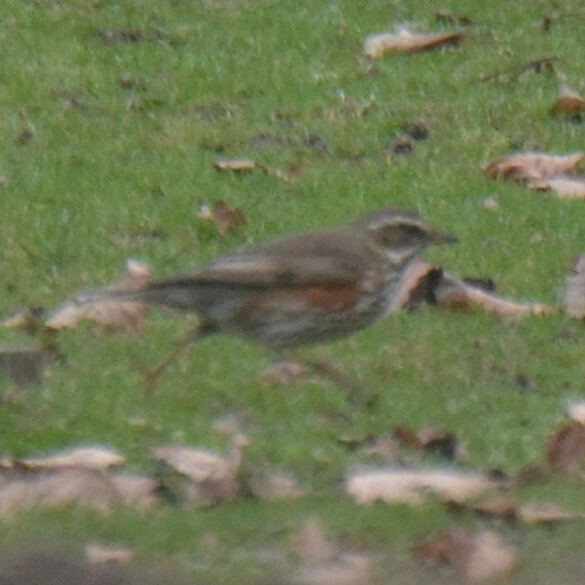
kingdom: Animalia
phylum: Chordata
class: Aves
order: Passeriformes
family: Turdidae
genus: Turdus
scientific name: Turdus iliacus
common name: Redwing
